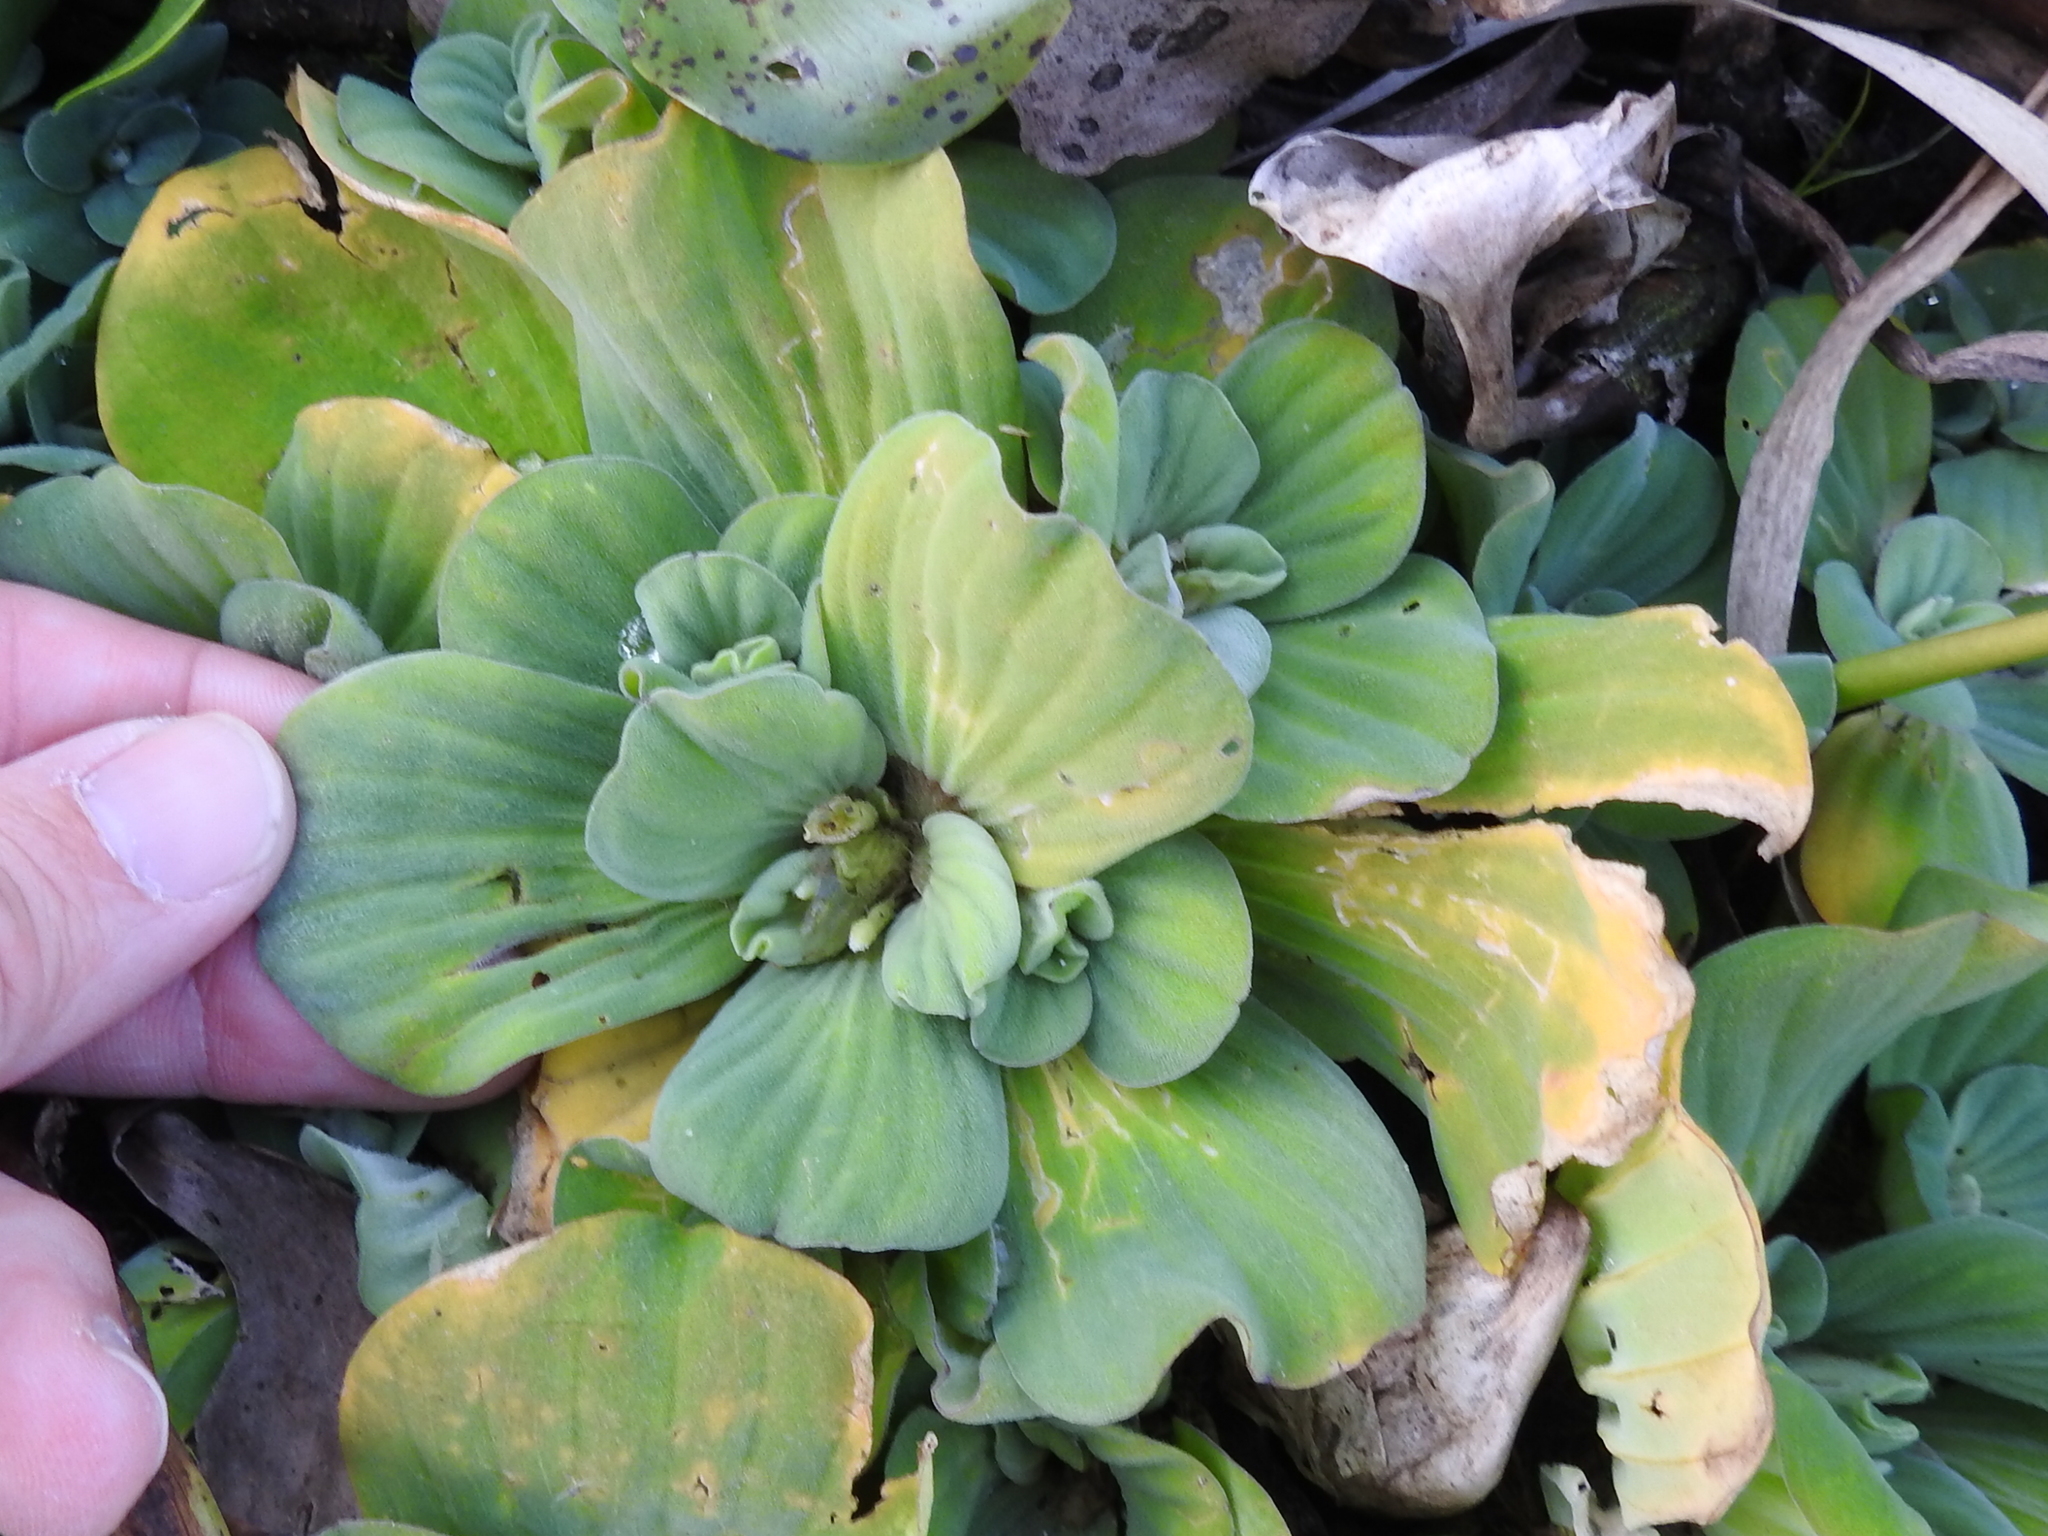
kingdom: Plantae
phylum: Tracheophyta
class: Liliopsida
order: Alismatales
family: Araceae
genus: Pistia
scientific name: Pistia stratiotes
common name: Water lettuce
